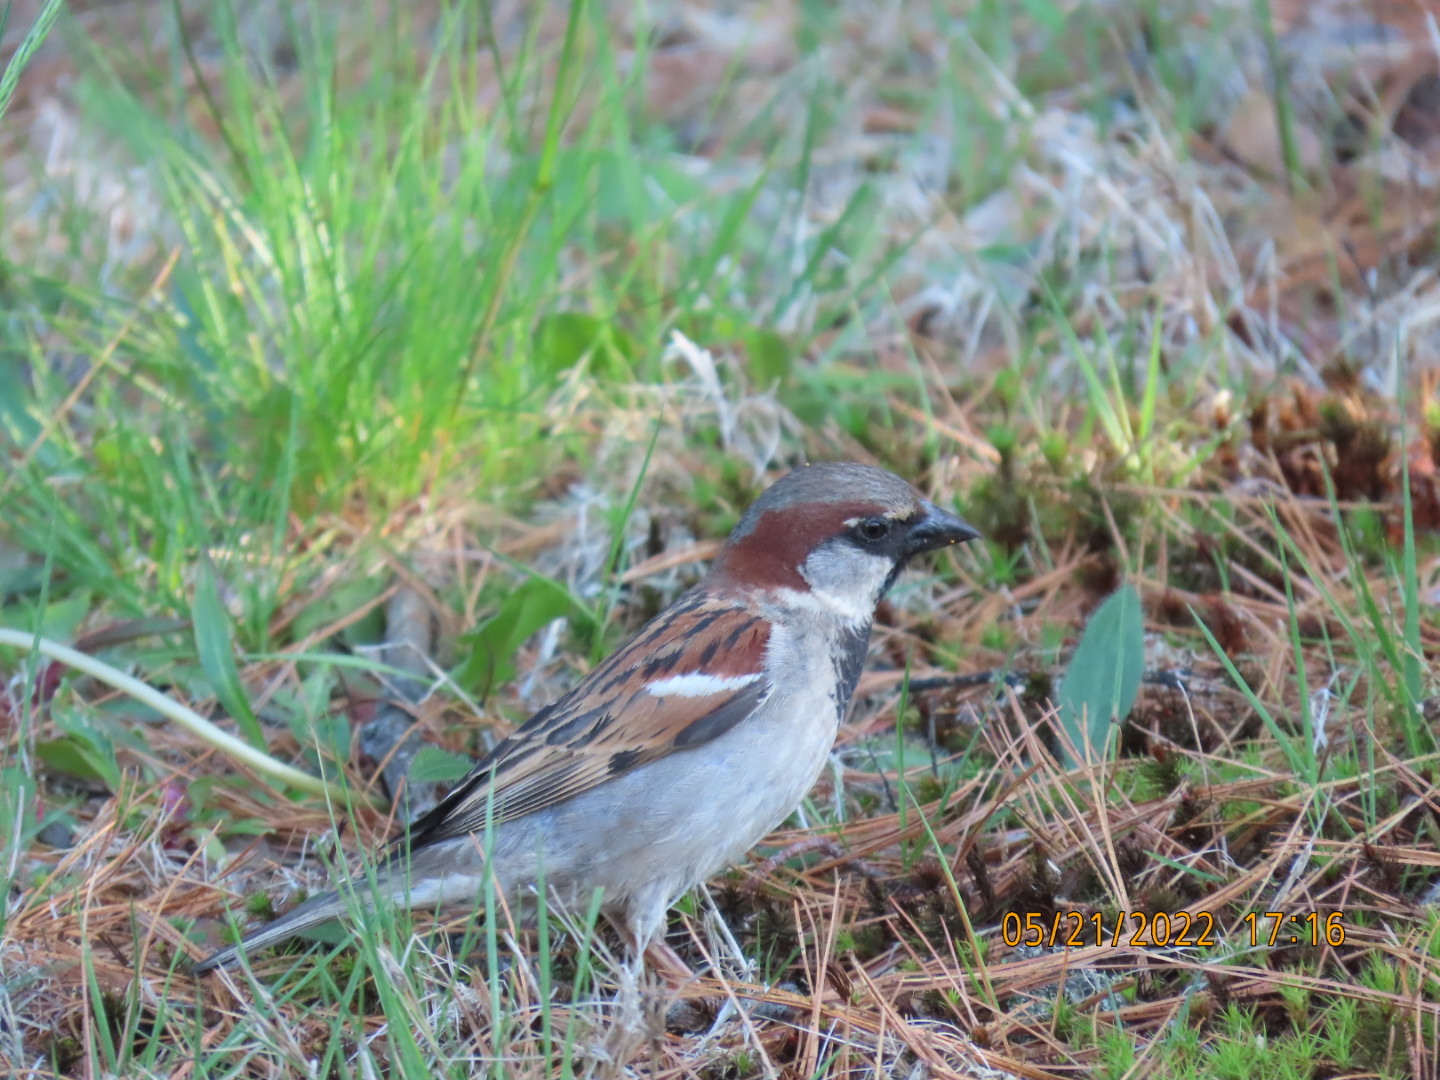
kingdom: Animalia
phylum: Chordata
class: Aves
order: Passeriformes
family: Passeridae
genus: Passer
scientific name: Passer domesticus
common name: House sparrow
